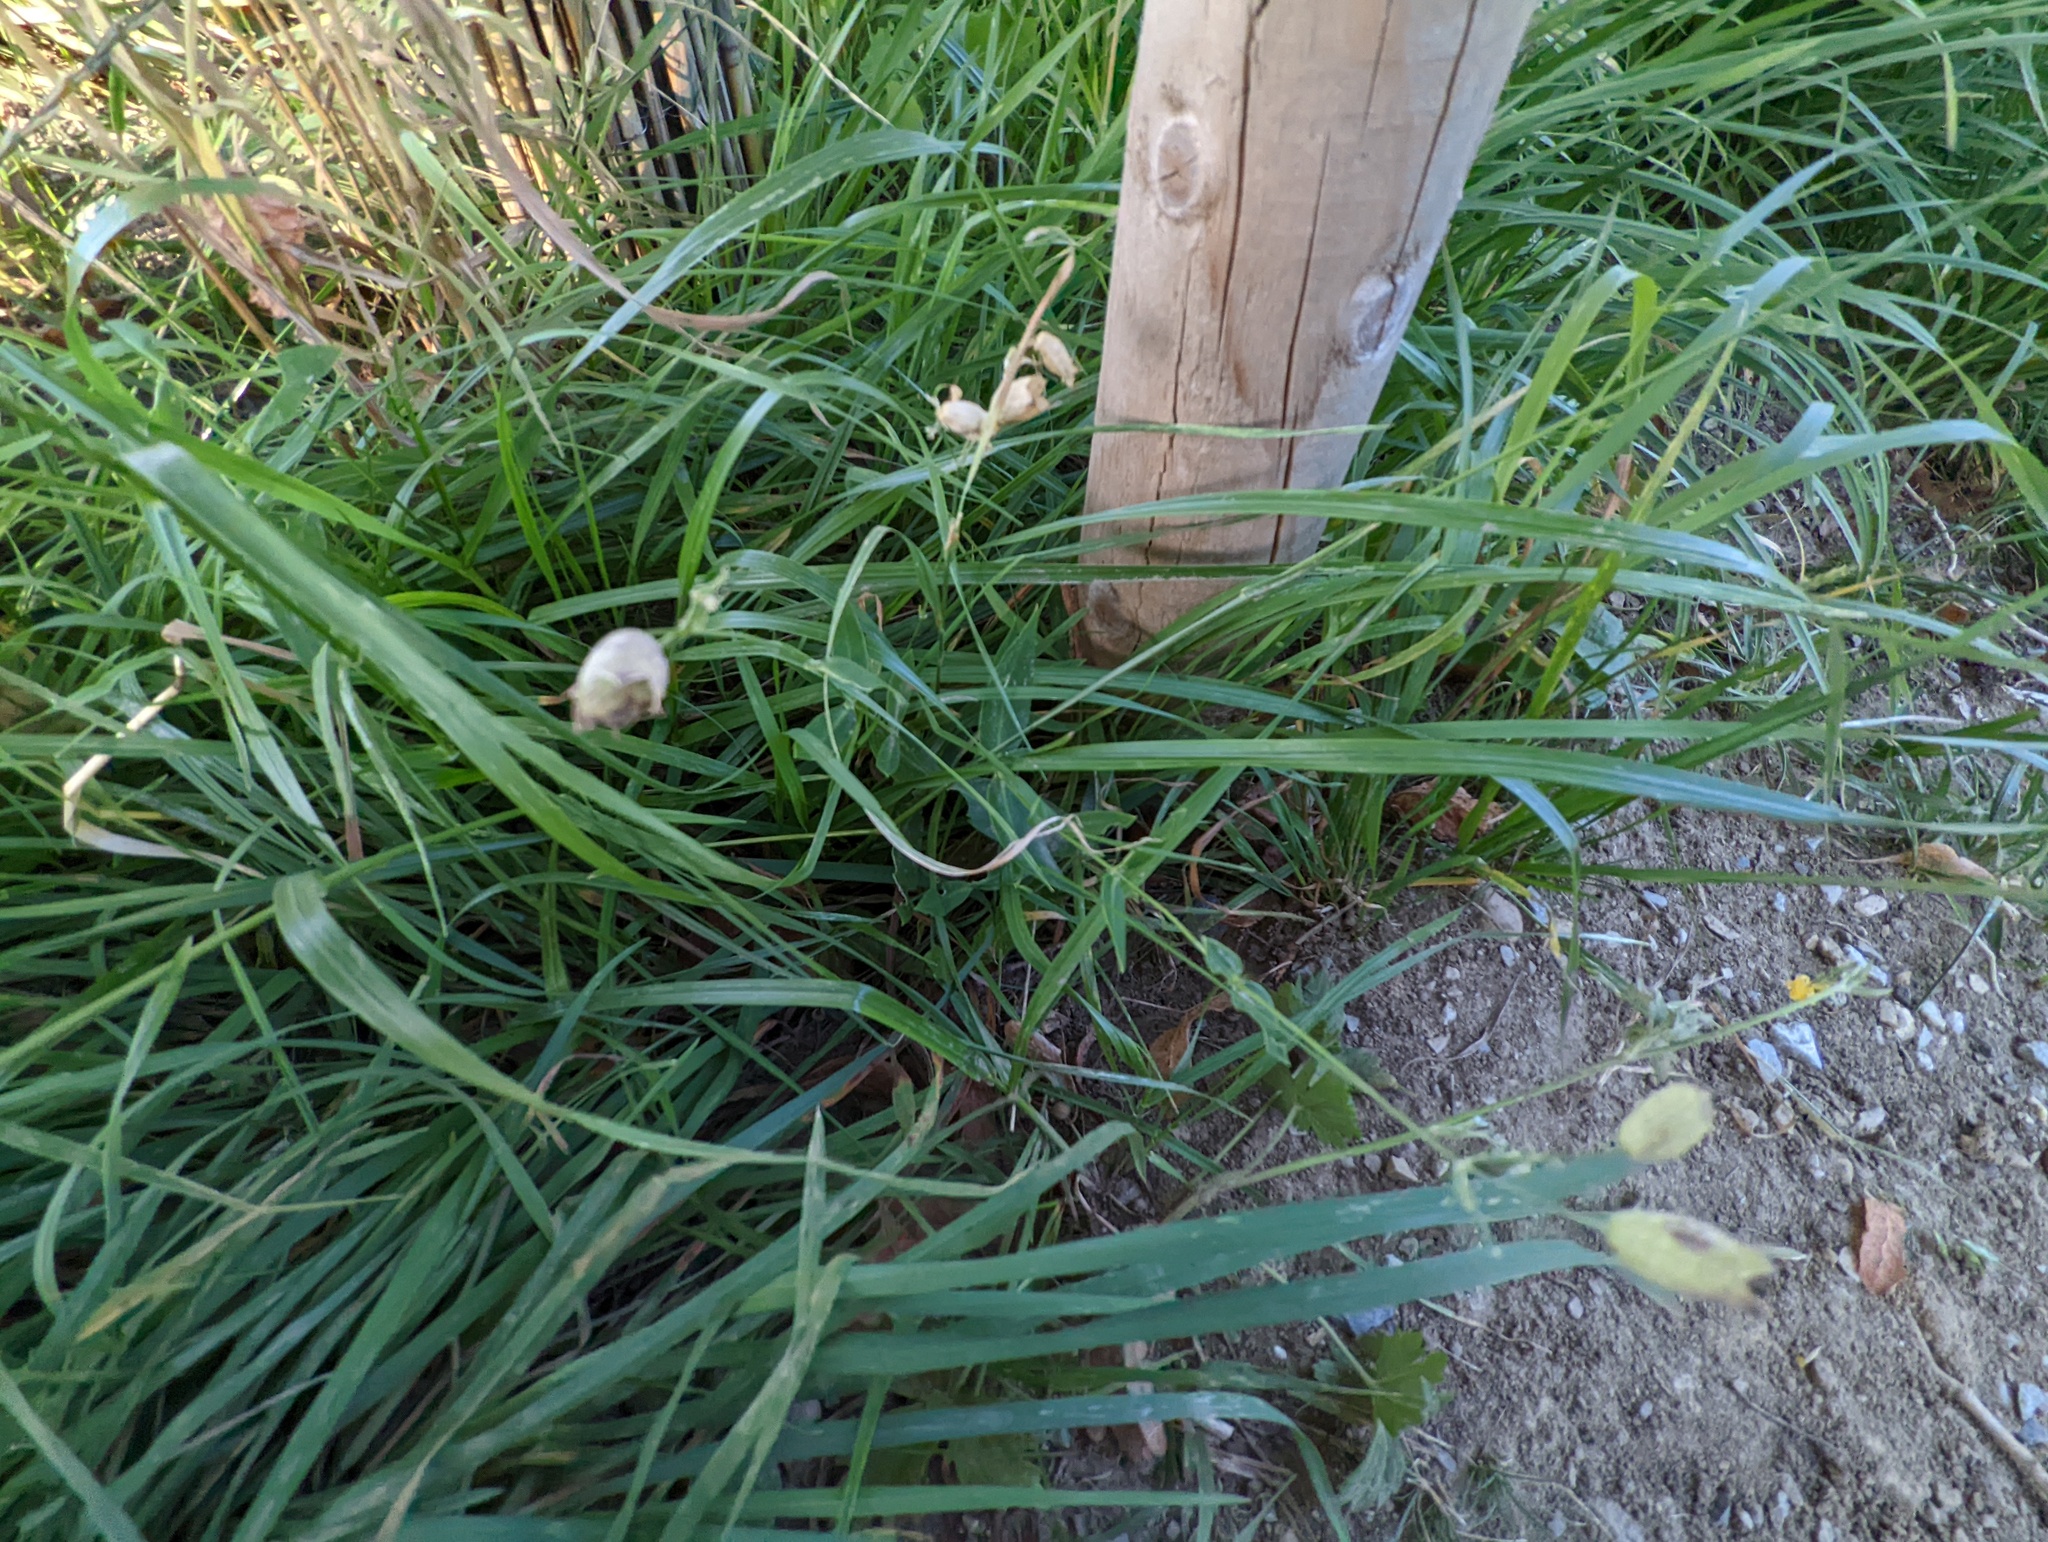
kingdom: Plantae
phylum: Tracheophyta
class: Magnoliopsida
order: Caryophyllales
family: Caryophyllaceae
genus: Silene
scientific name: Silene vulgaris
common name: Bladder campion
